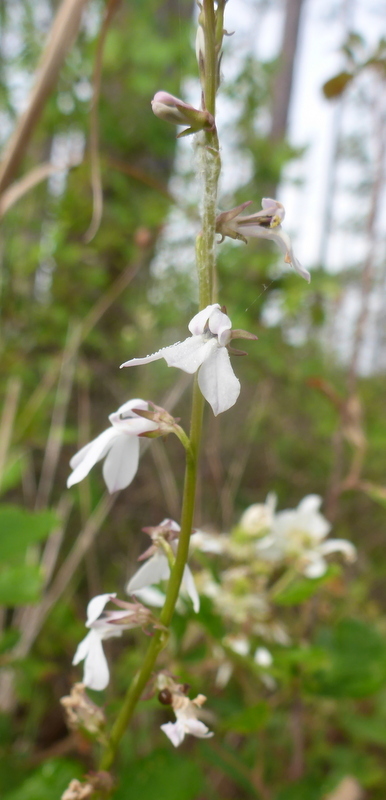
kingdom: Plantae
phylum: Tracheophyta
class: Magnoliopsida
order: Asterales
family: Campanulaceae
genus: Lobelia
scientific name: Lobelia paludosa
